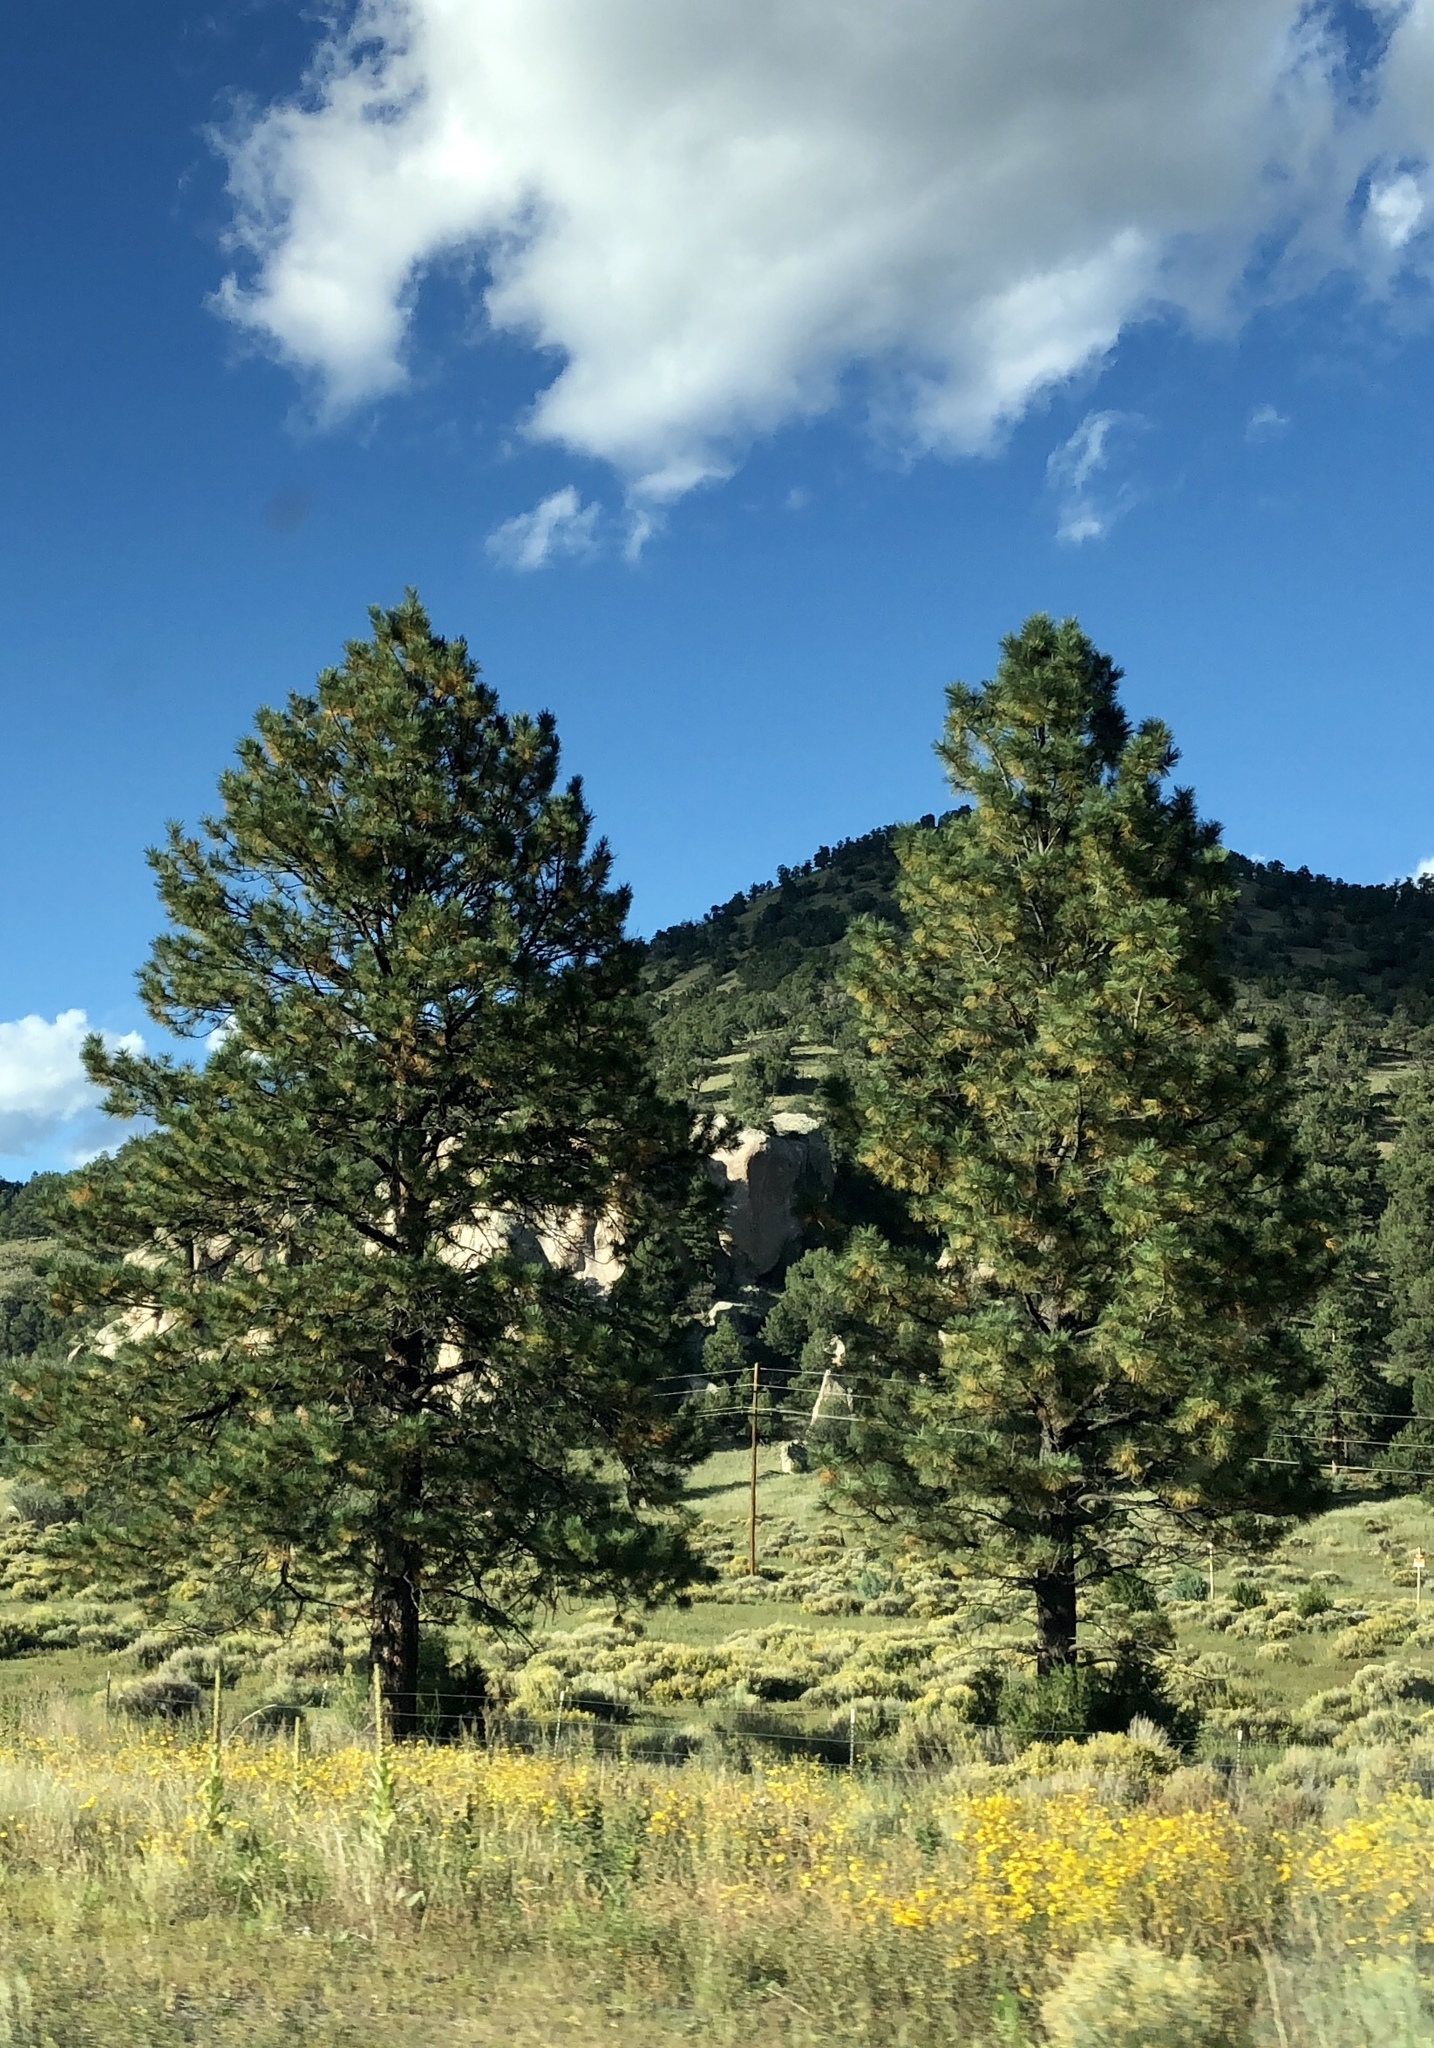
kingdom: Plantae
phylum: Tracheophyta
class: Pinopsida
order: Pinales
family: Pinaceae
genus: Pinus
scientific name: Pinus ponderosa
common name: Western yellow-pine
